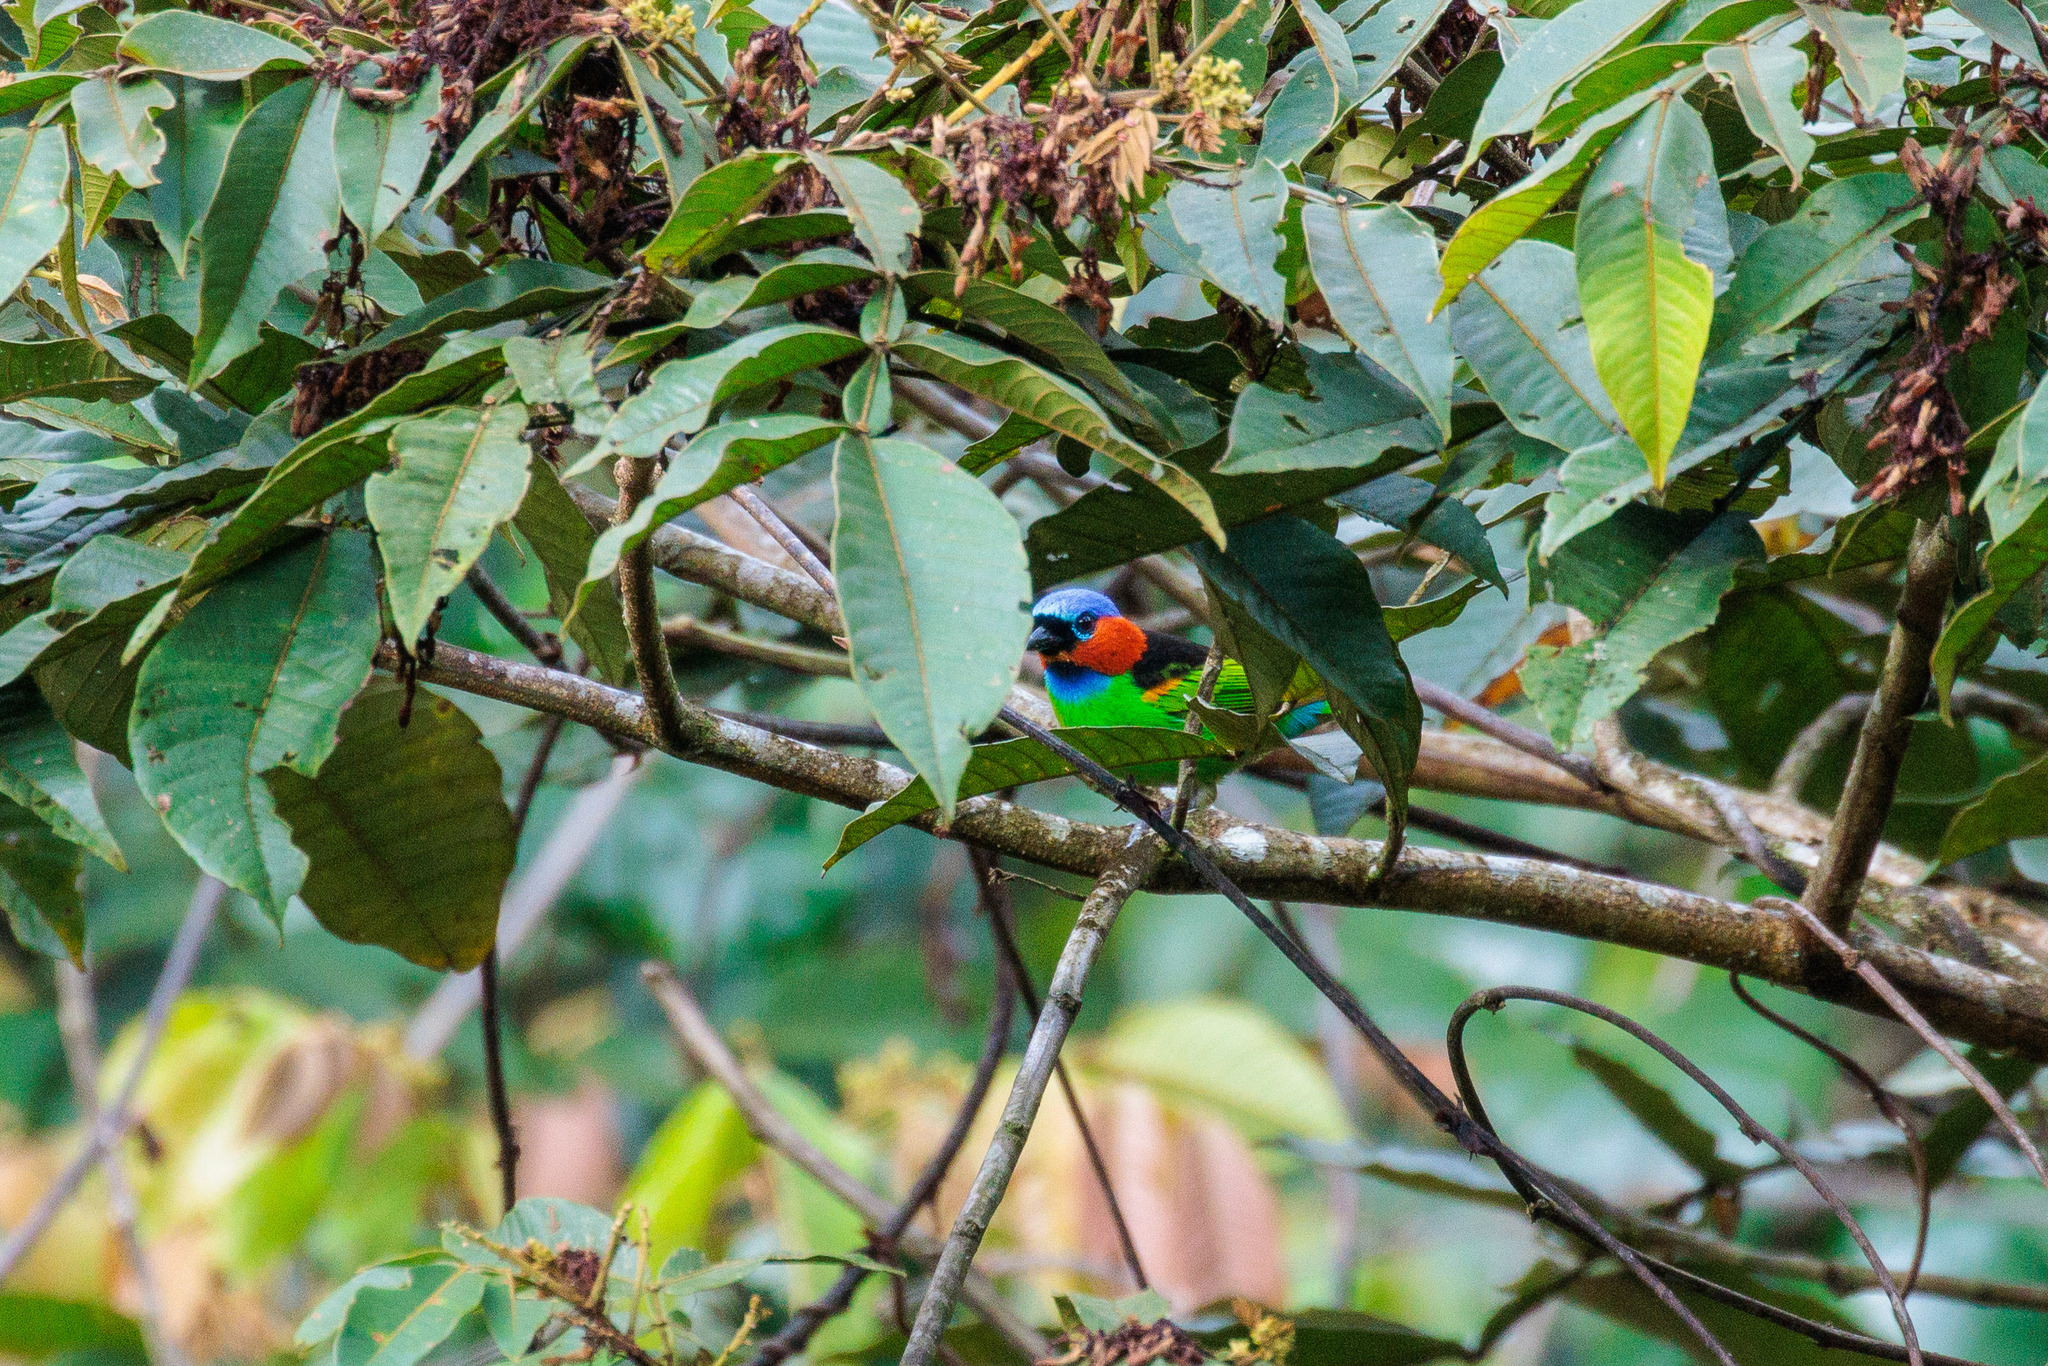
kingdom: Animalia
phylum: Chordata
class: Aves
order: Passeriformes
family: Thraupidae
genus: Tangara
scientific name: Tangara cyanocephala
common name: Red-necked tanager
